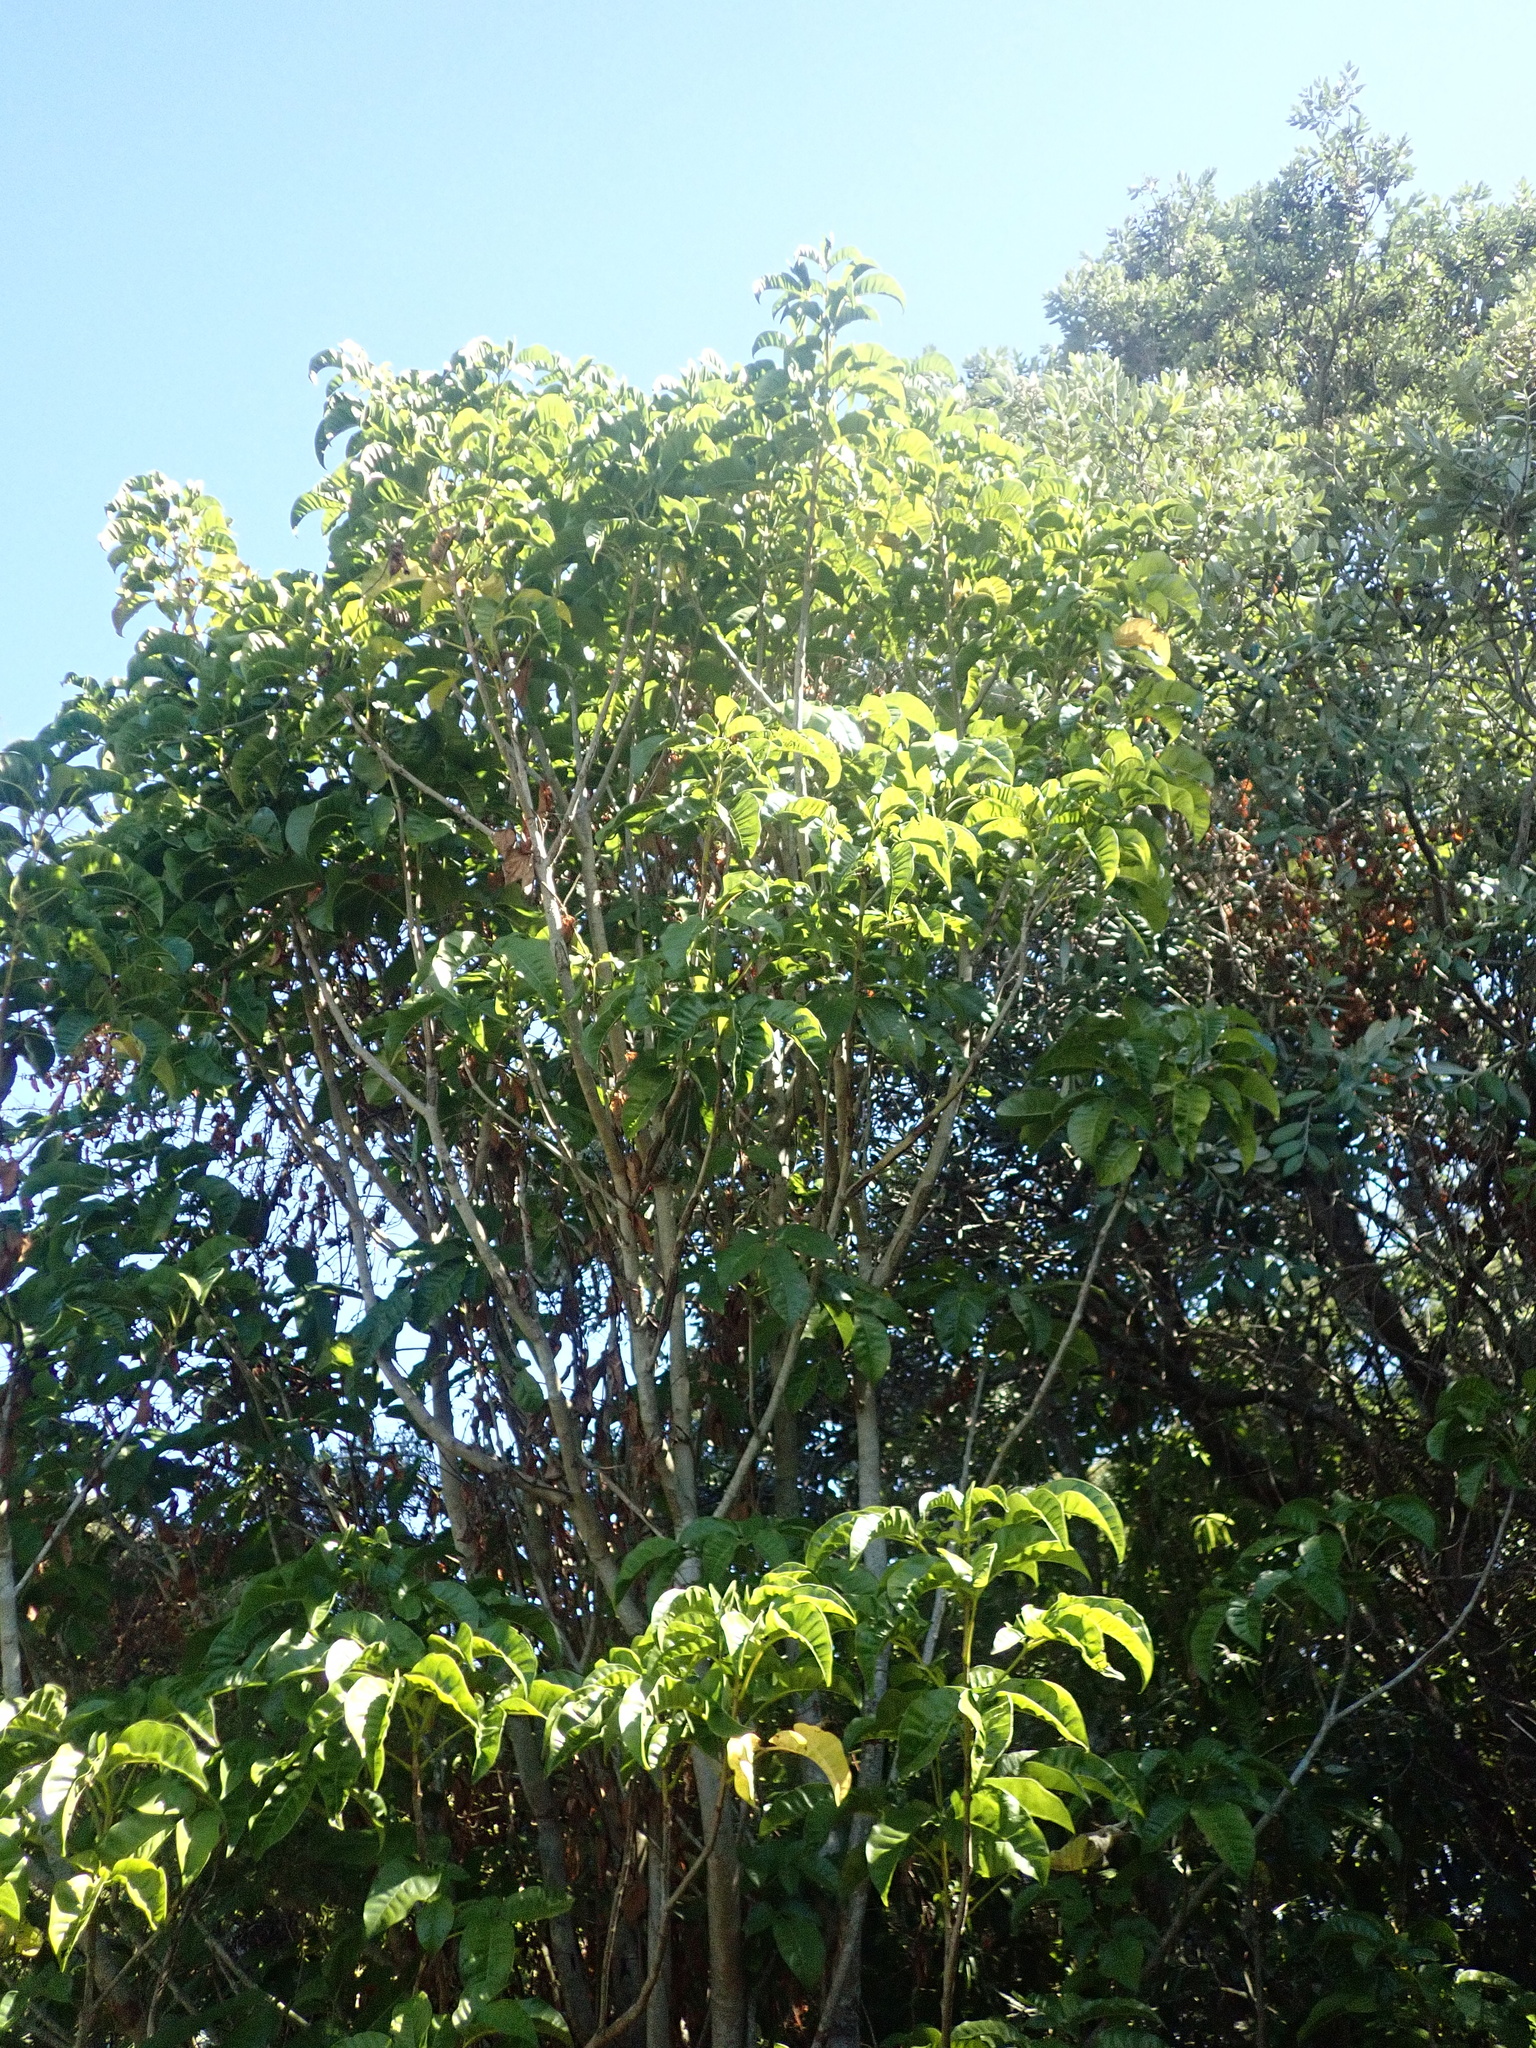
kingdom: Plantae
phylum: Tracheophyta
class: Magnoliopsida
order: Lamiales
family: Lamiaceae
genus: Vitex
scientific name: Vitex lucens
